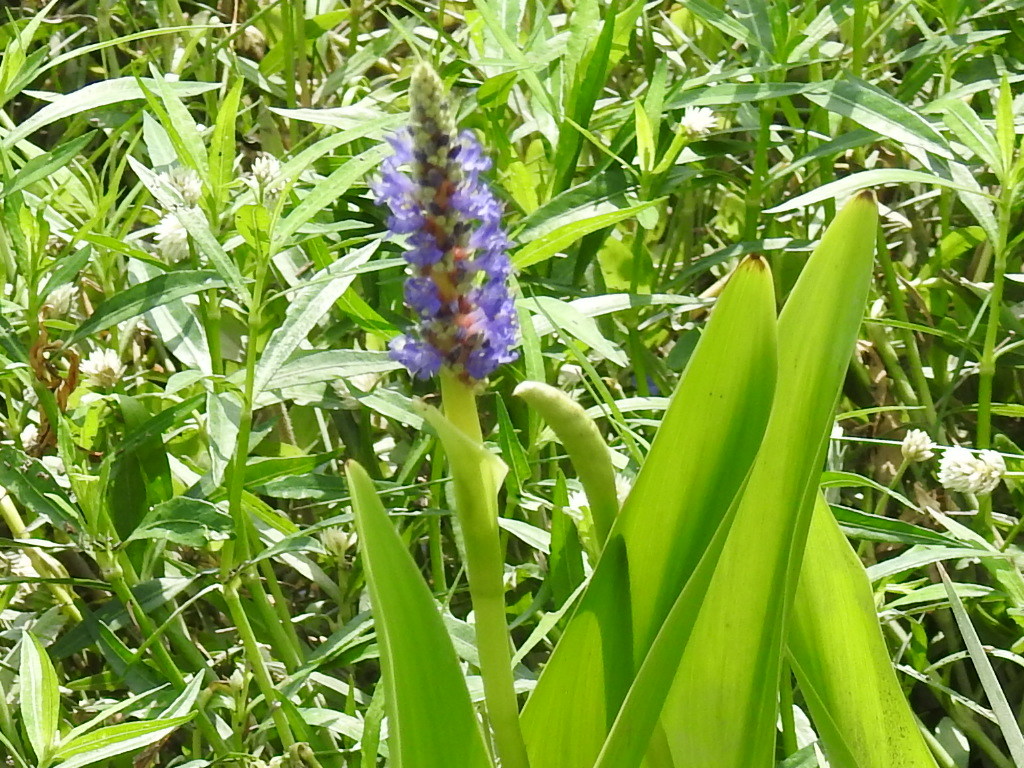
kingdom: Plantae
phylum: Tracheophyta
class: Liliopsida
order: Commelinales
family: Pontederiaceae
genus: Pontederia
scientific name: Pontederia cordata
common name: Pickerelweed
